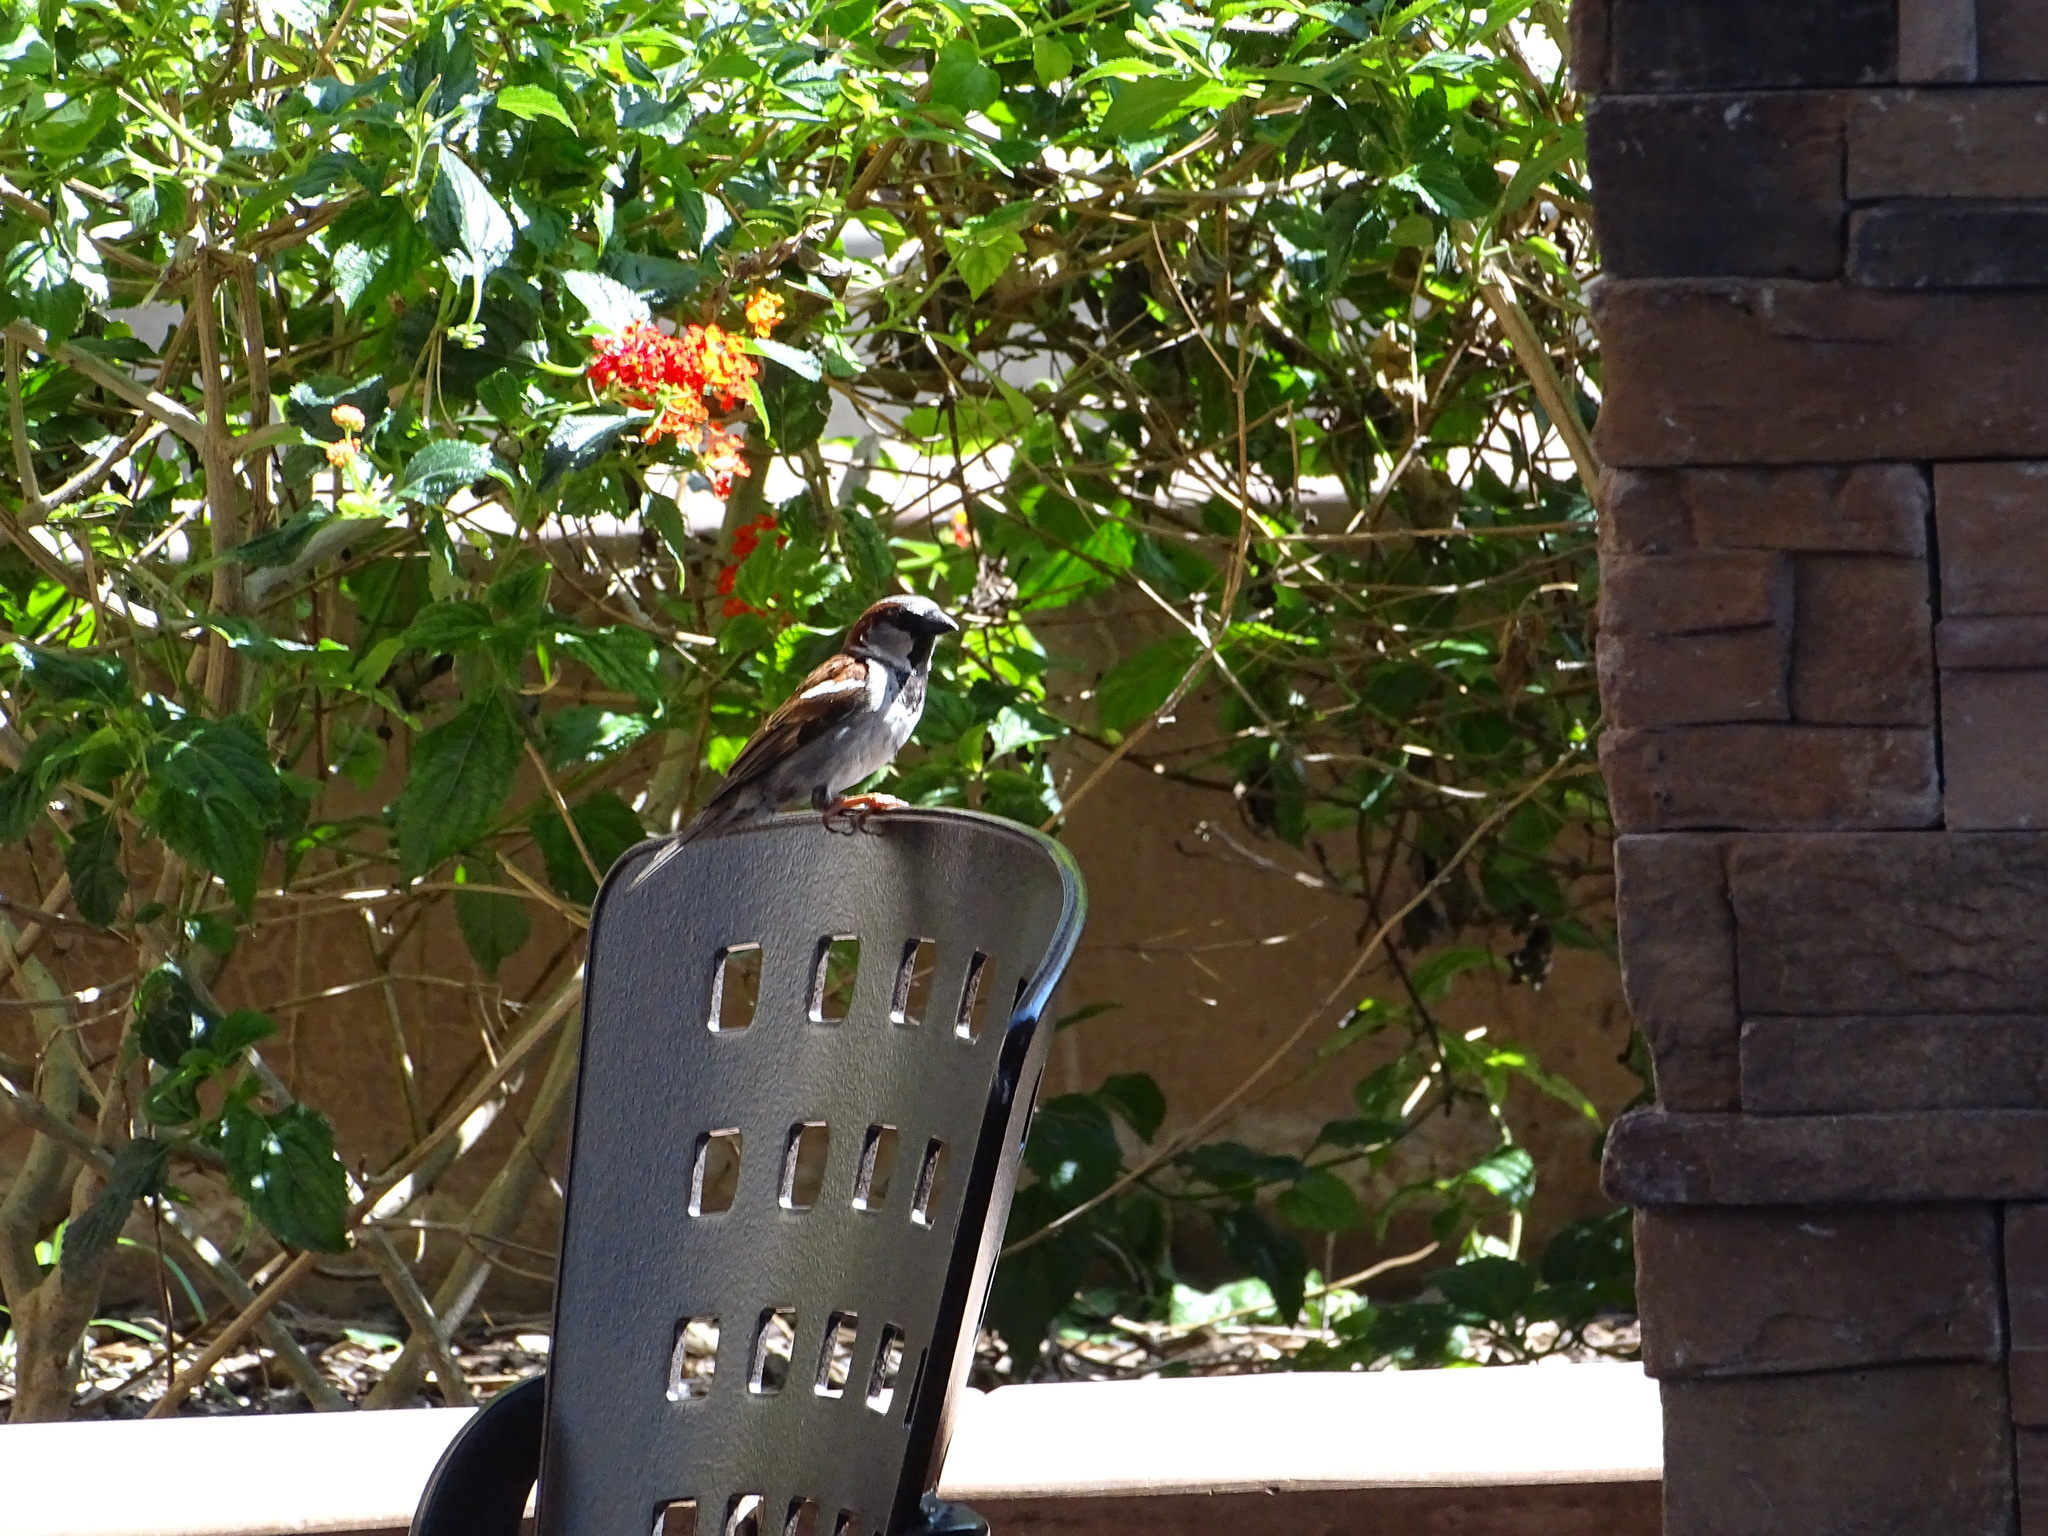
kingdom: Animalia
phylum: Chordata
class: Aves
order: Passeriformes
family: Passeridae
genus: Passer
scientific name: Passer domesticus
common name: House sparrow
